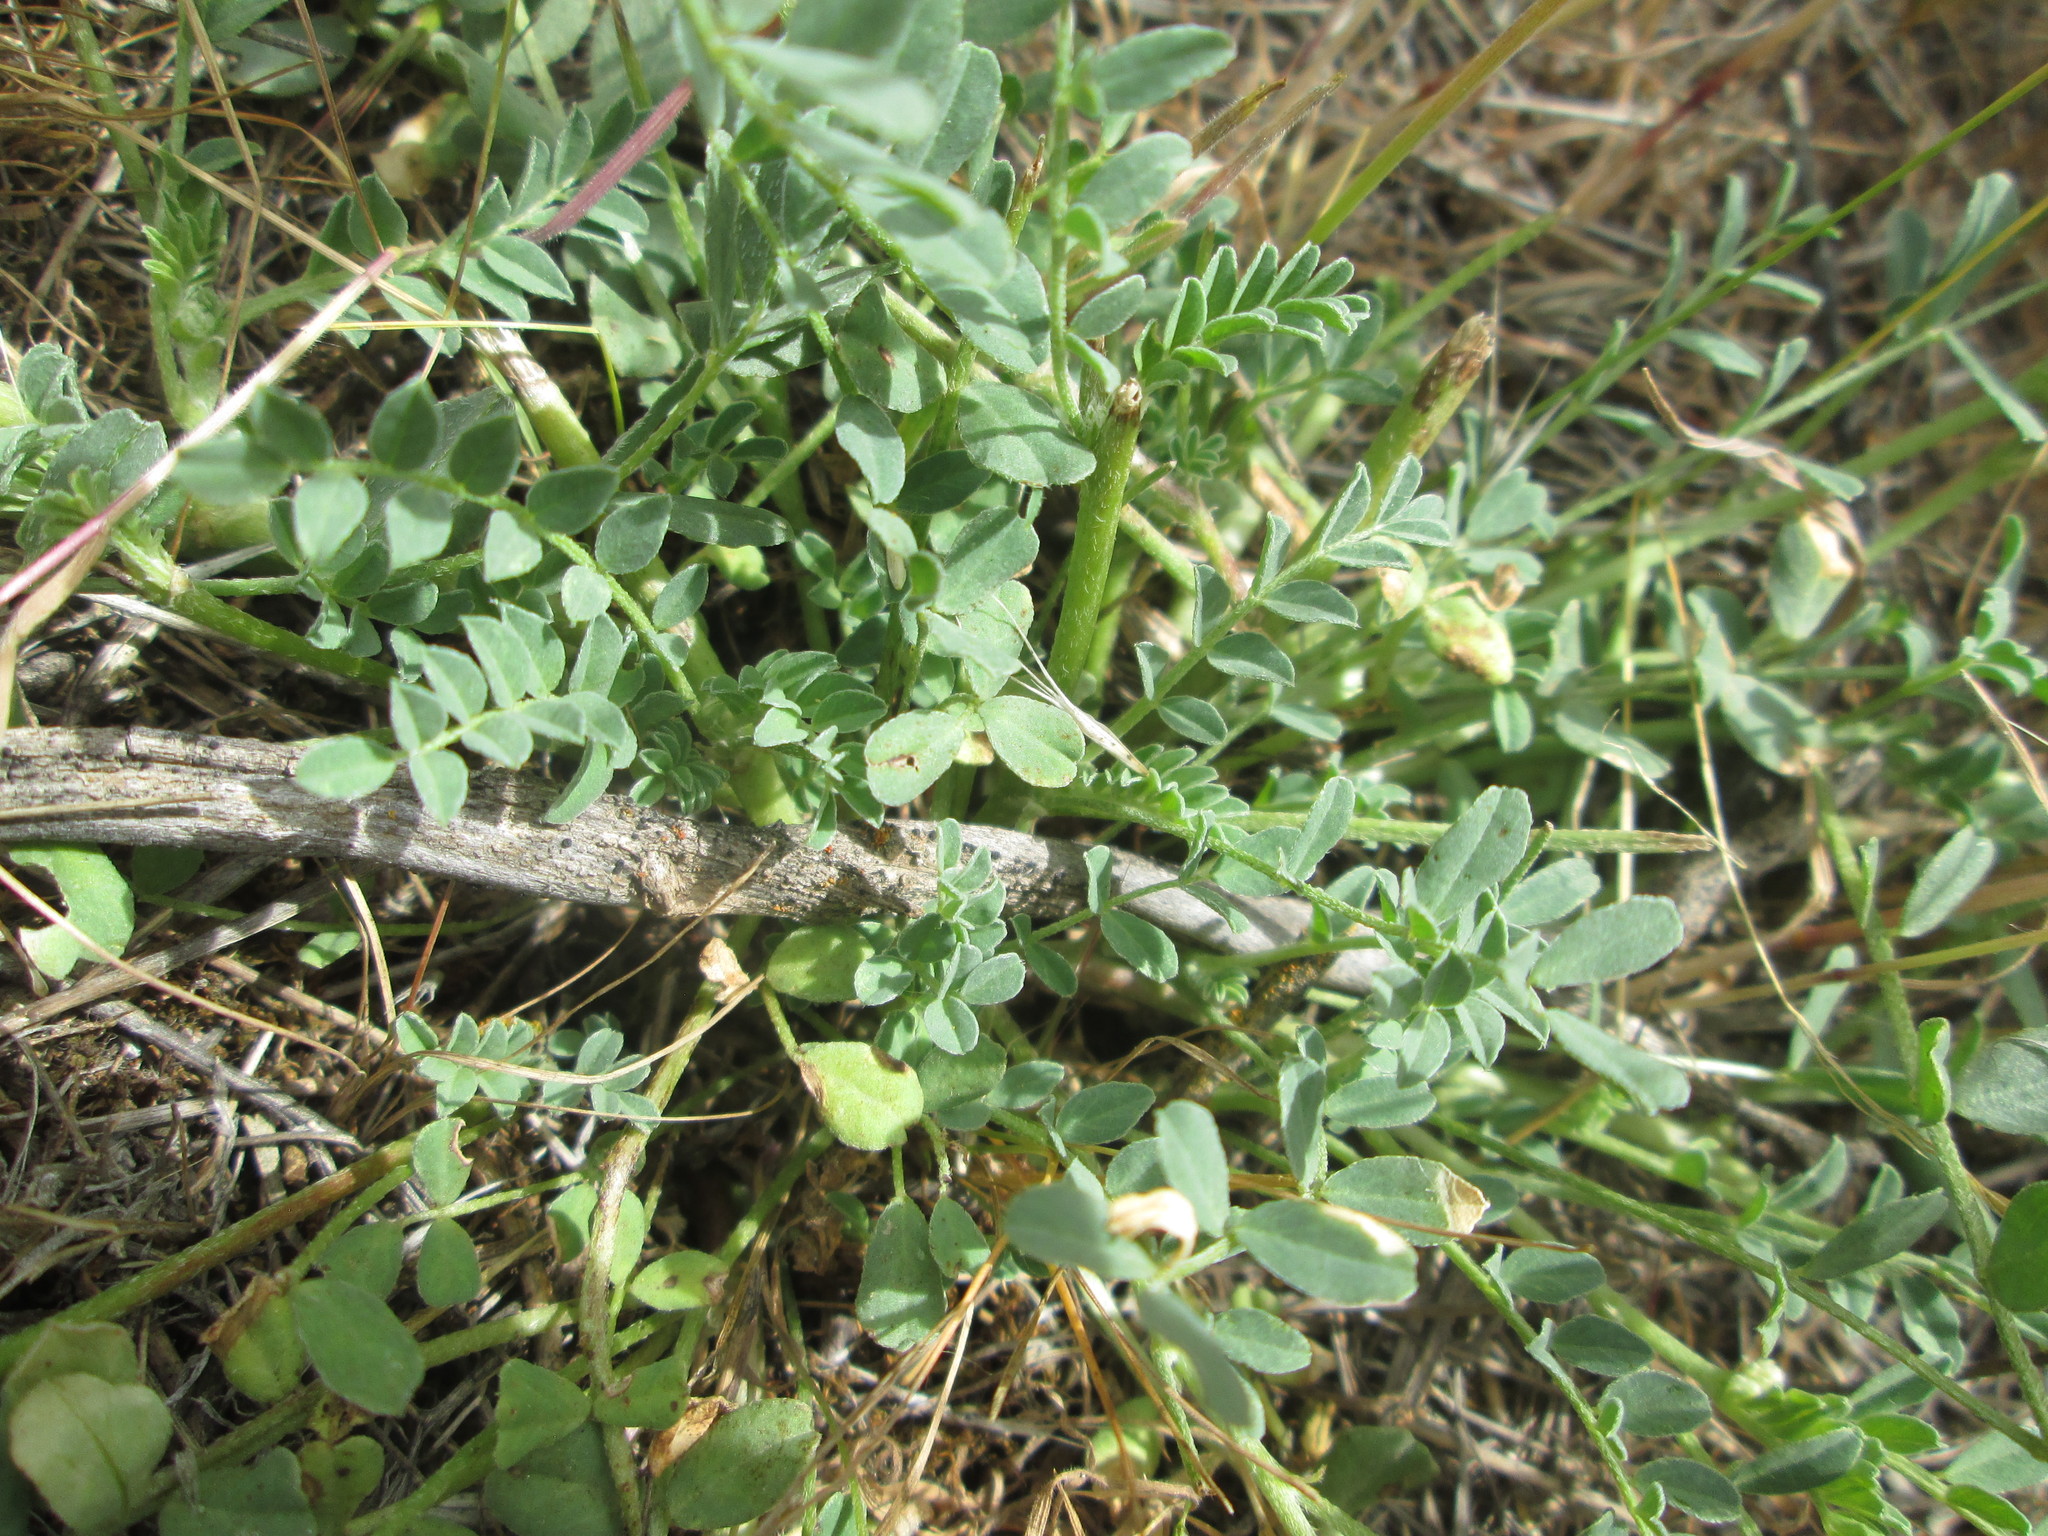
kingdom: Plantae
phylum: Tracheophyta
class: Magnoliopsida
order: Fabales
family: Fabaceae
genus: Astragalus
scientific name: Astragalus lentiginosus
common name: Freckled milkvetch
